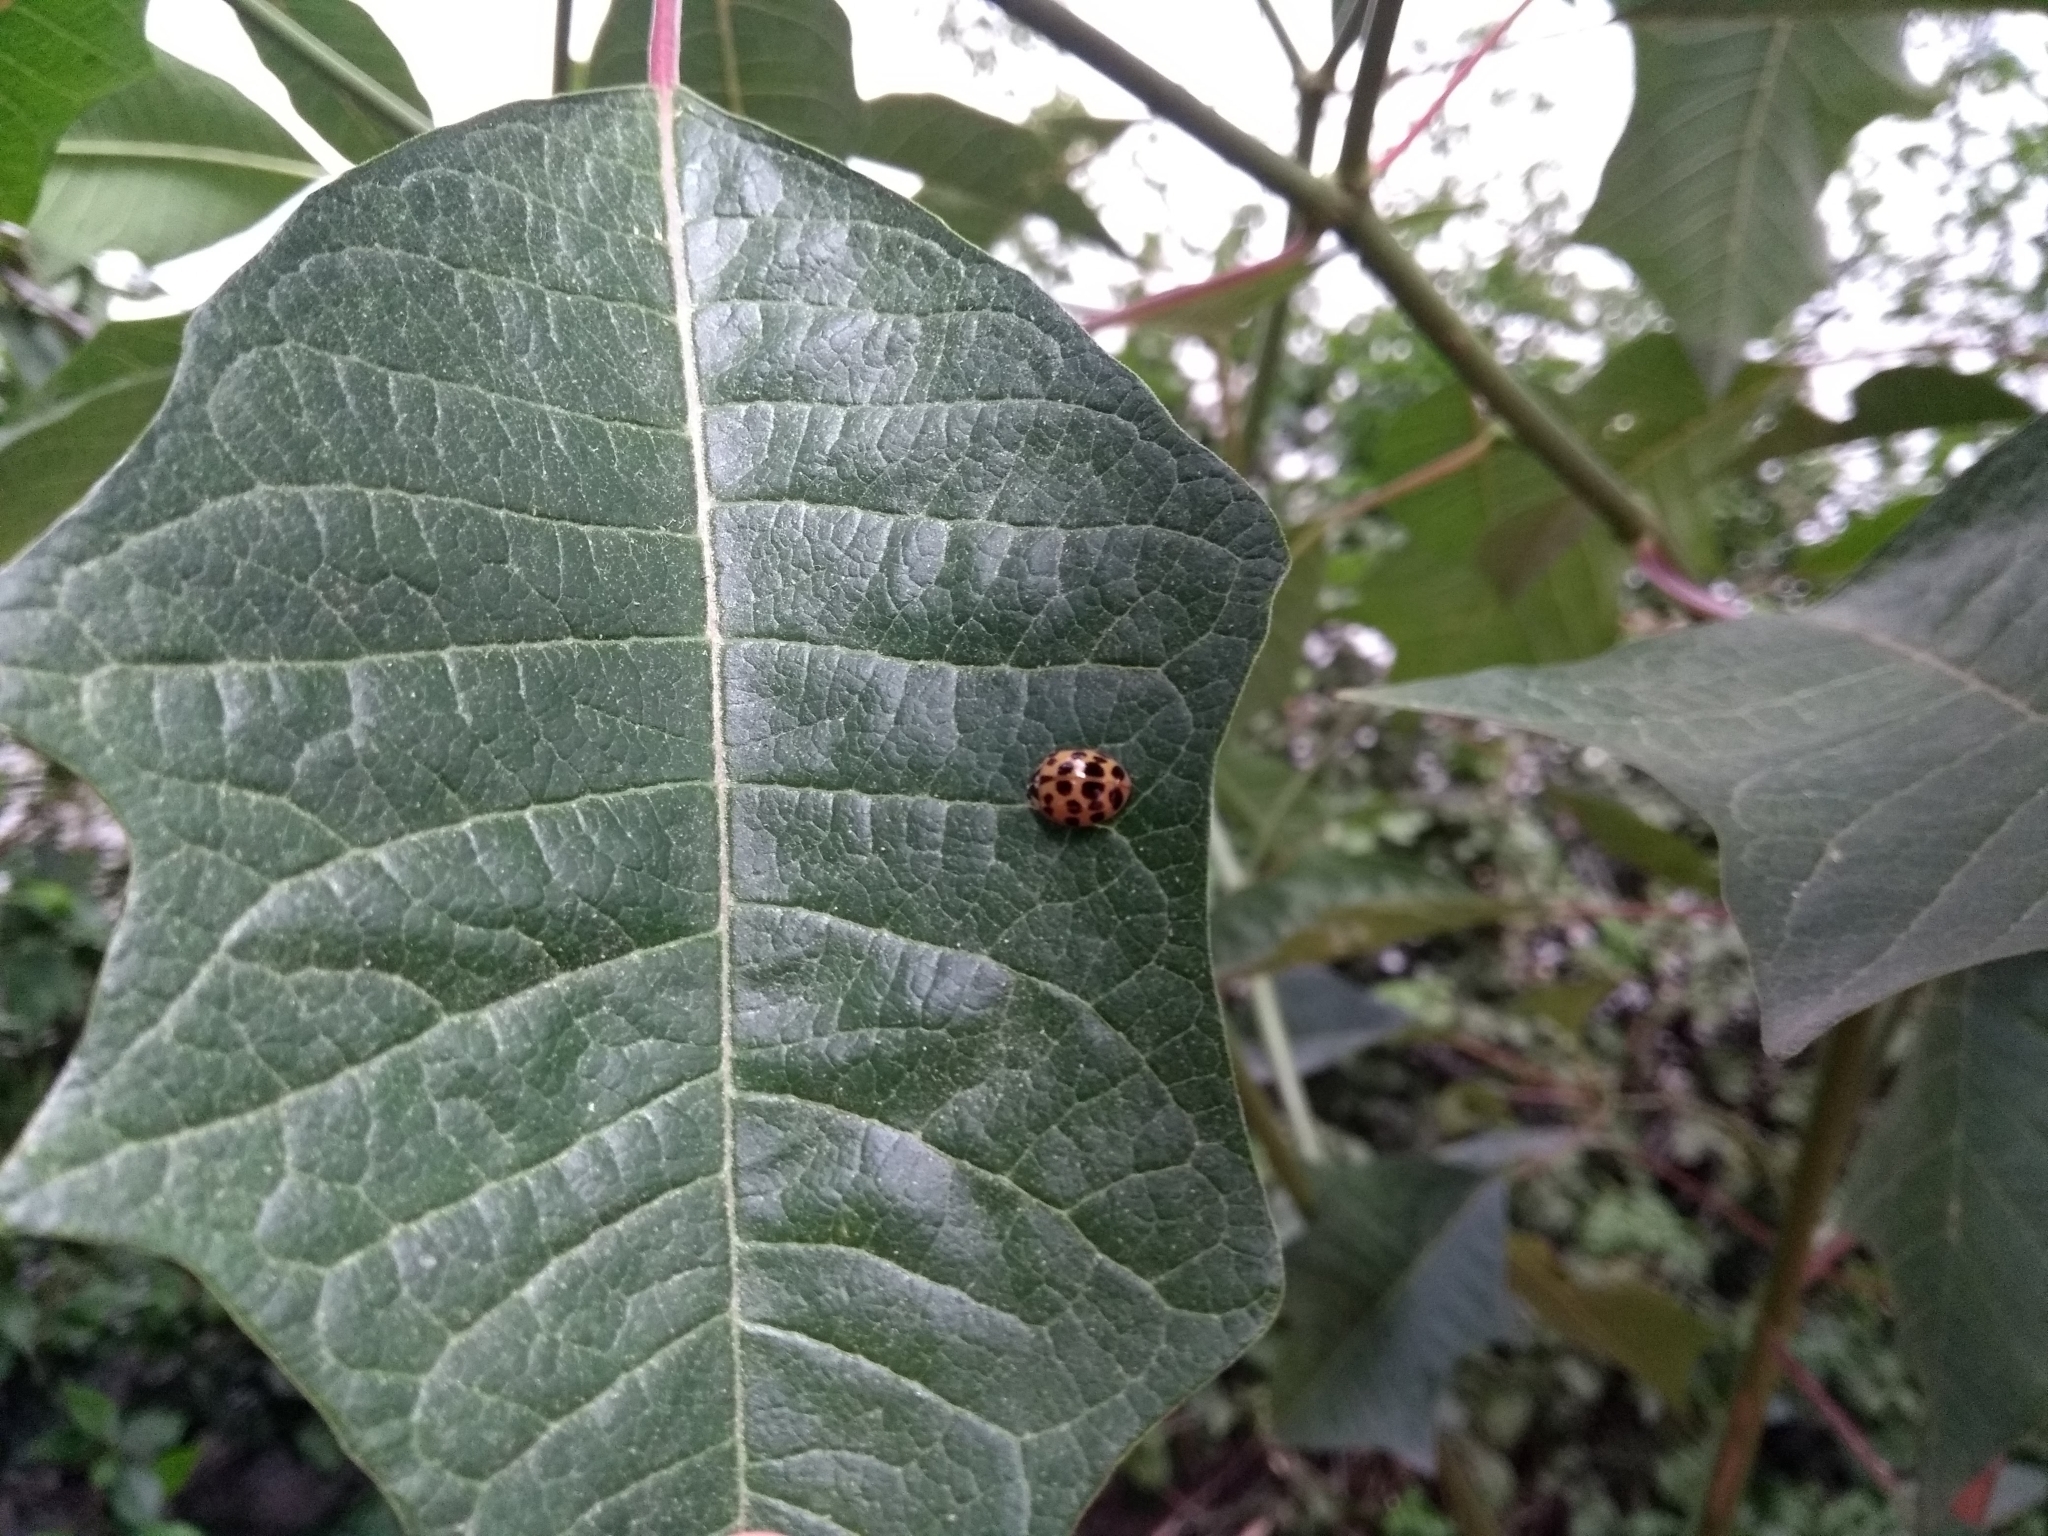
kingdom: Animalia
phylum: Arthropoda
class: Insecta
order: Coleoptera
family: Coccinellidae
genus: Harmonia
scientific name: Harmonia axyridis
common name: Harlequin ladybird
